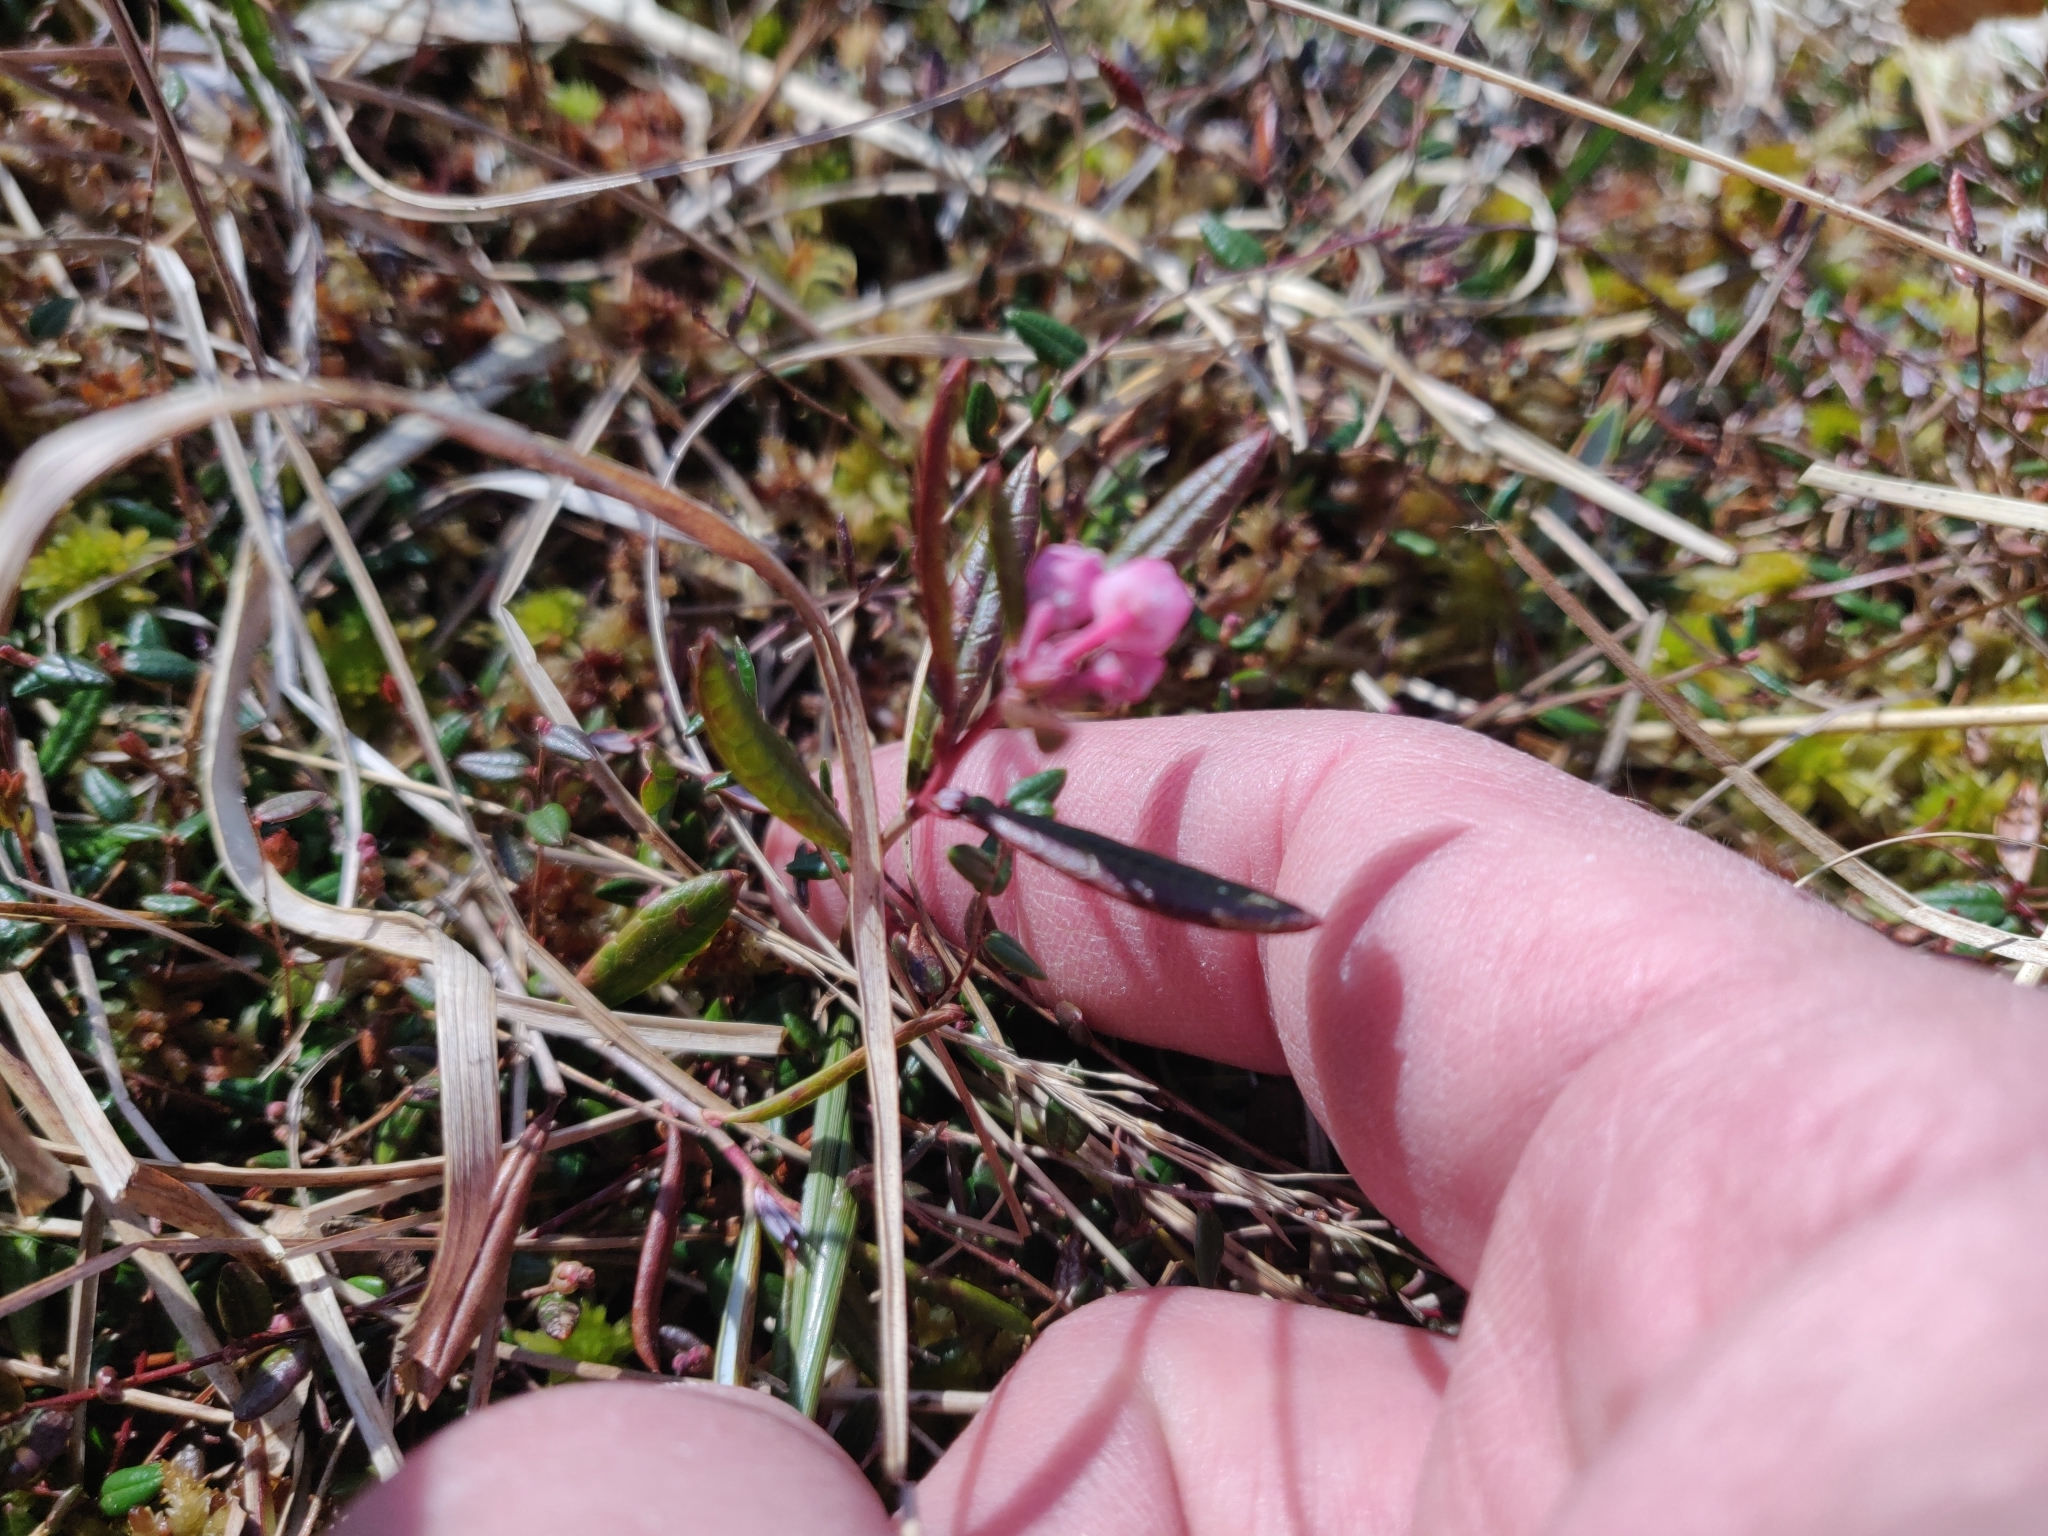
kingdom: Plantae
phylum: Tracheophyta
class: Magnoliopsida
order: Ericales
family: Ericaceae
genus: Andromeda
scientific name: Andromeda polifolia
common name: Bog-rosemary
